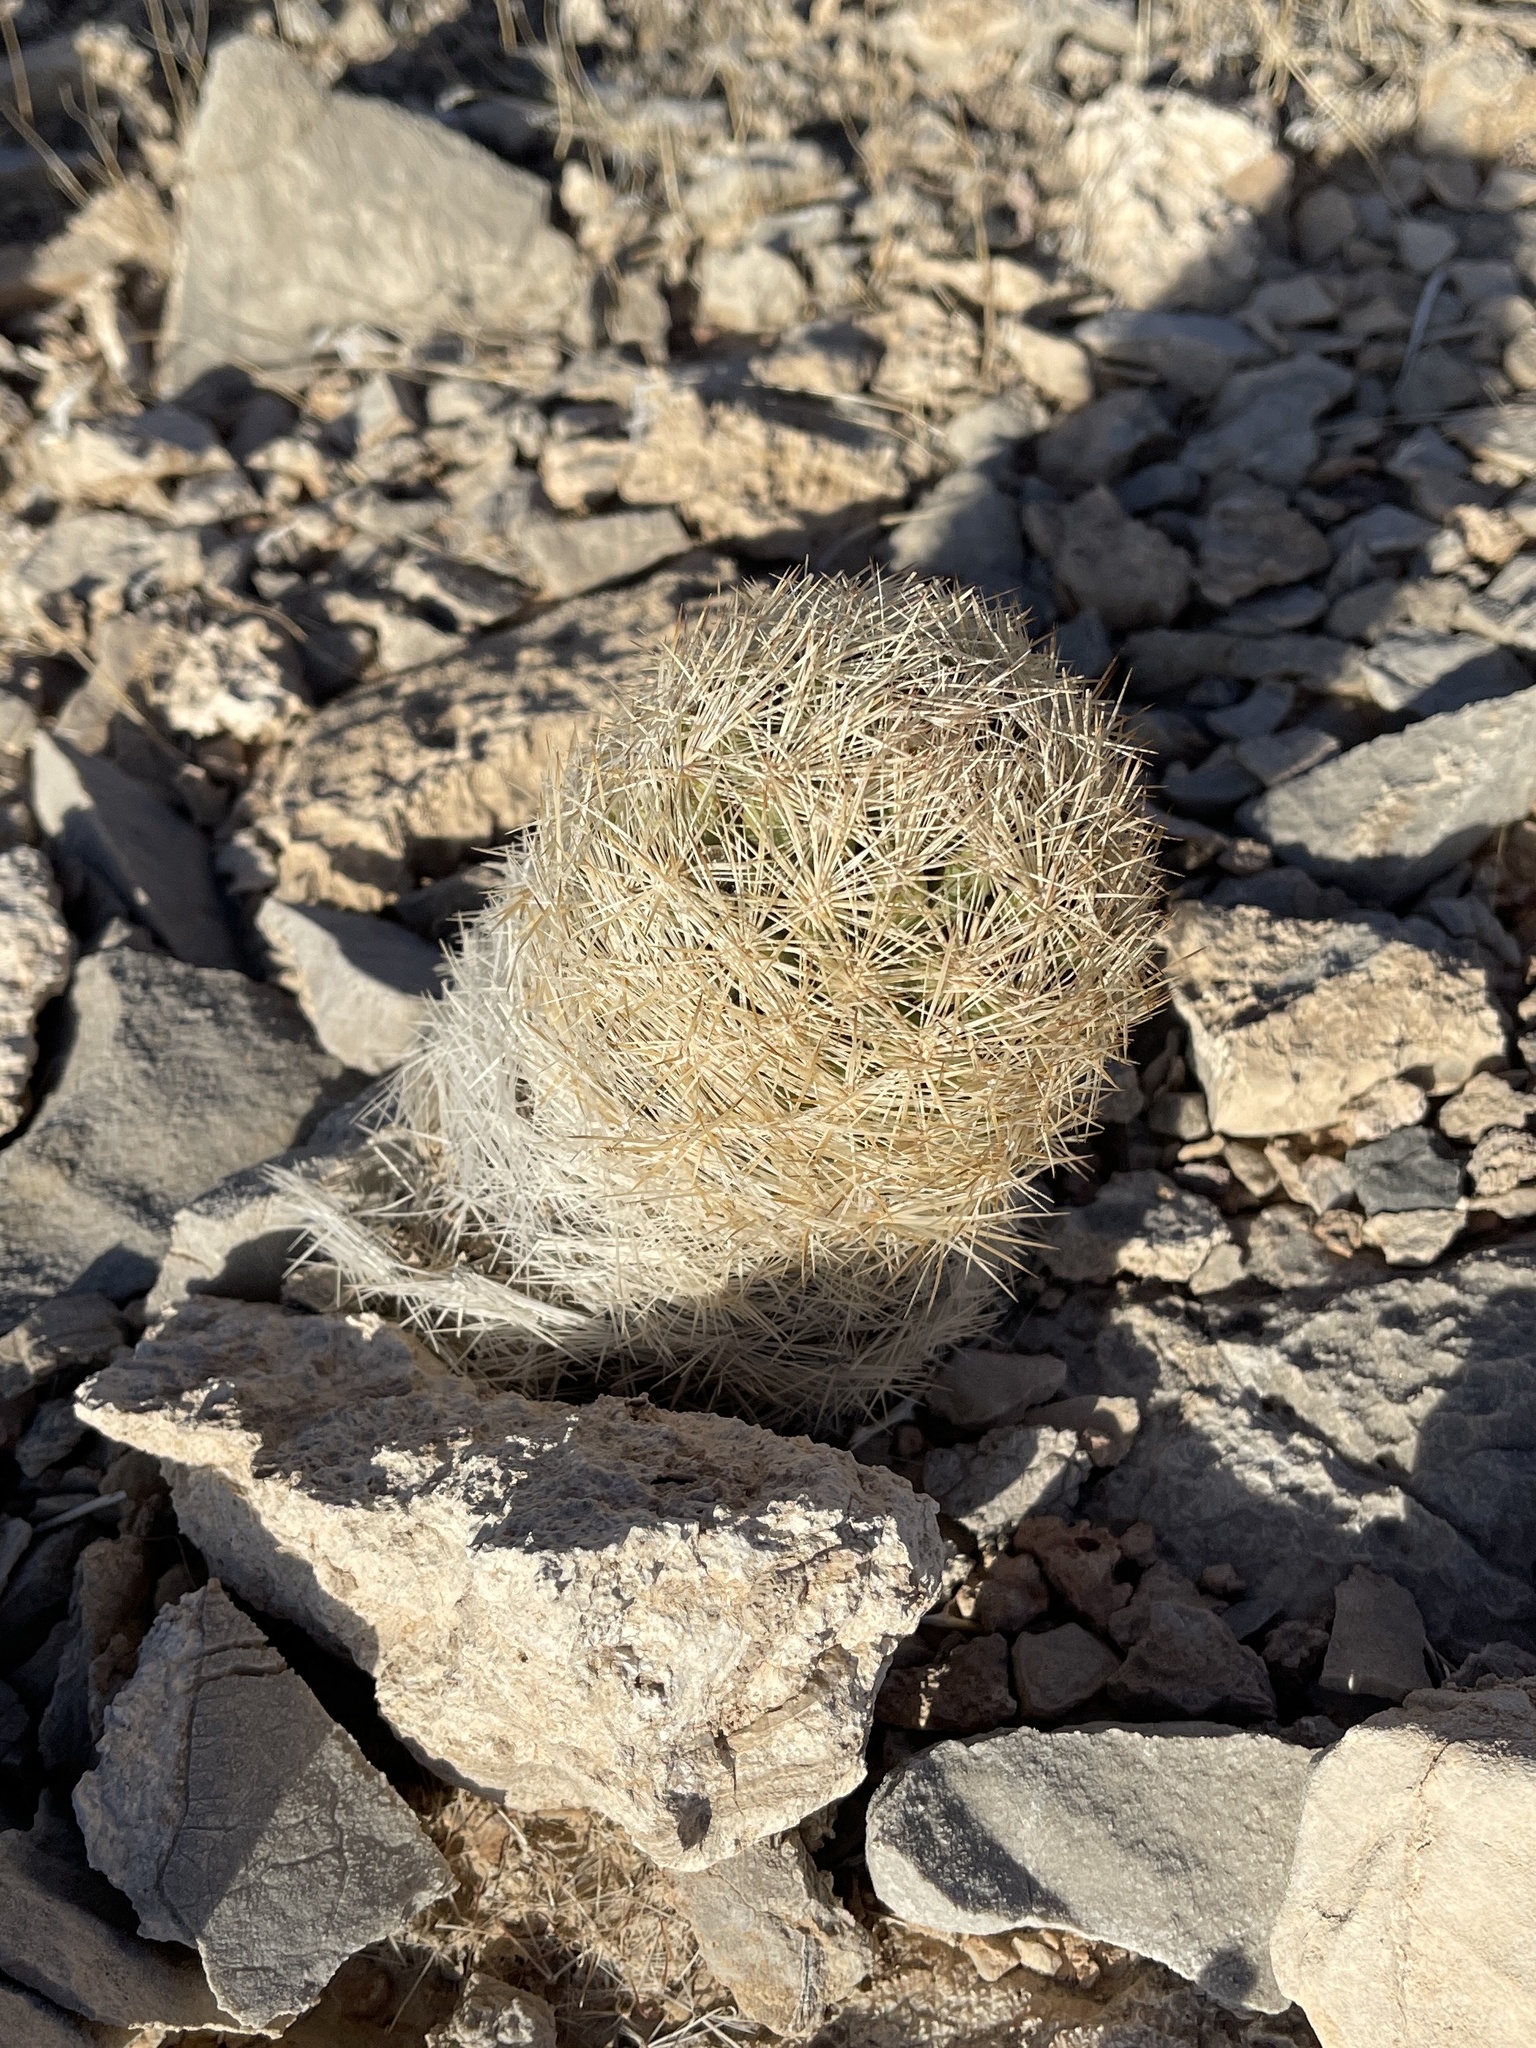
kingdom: Plantae
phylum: Tracheophyta
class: Magnoliopsida
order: Caryophyllales
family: Cactaceae
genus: Pelecyphora
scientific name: Pelecyphora dasyacantha
